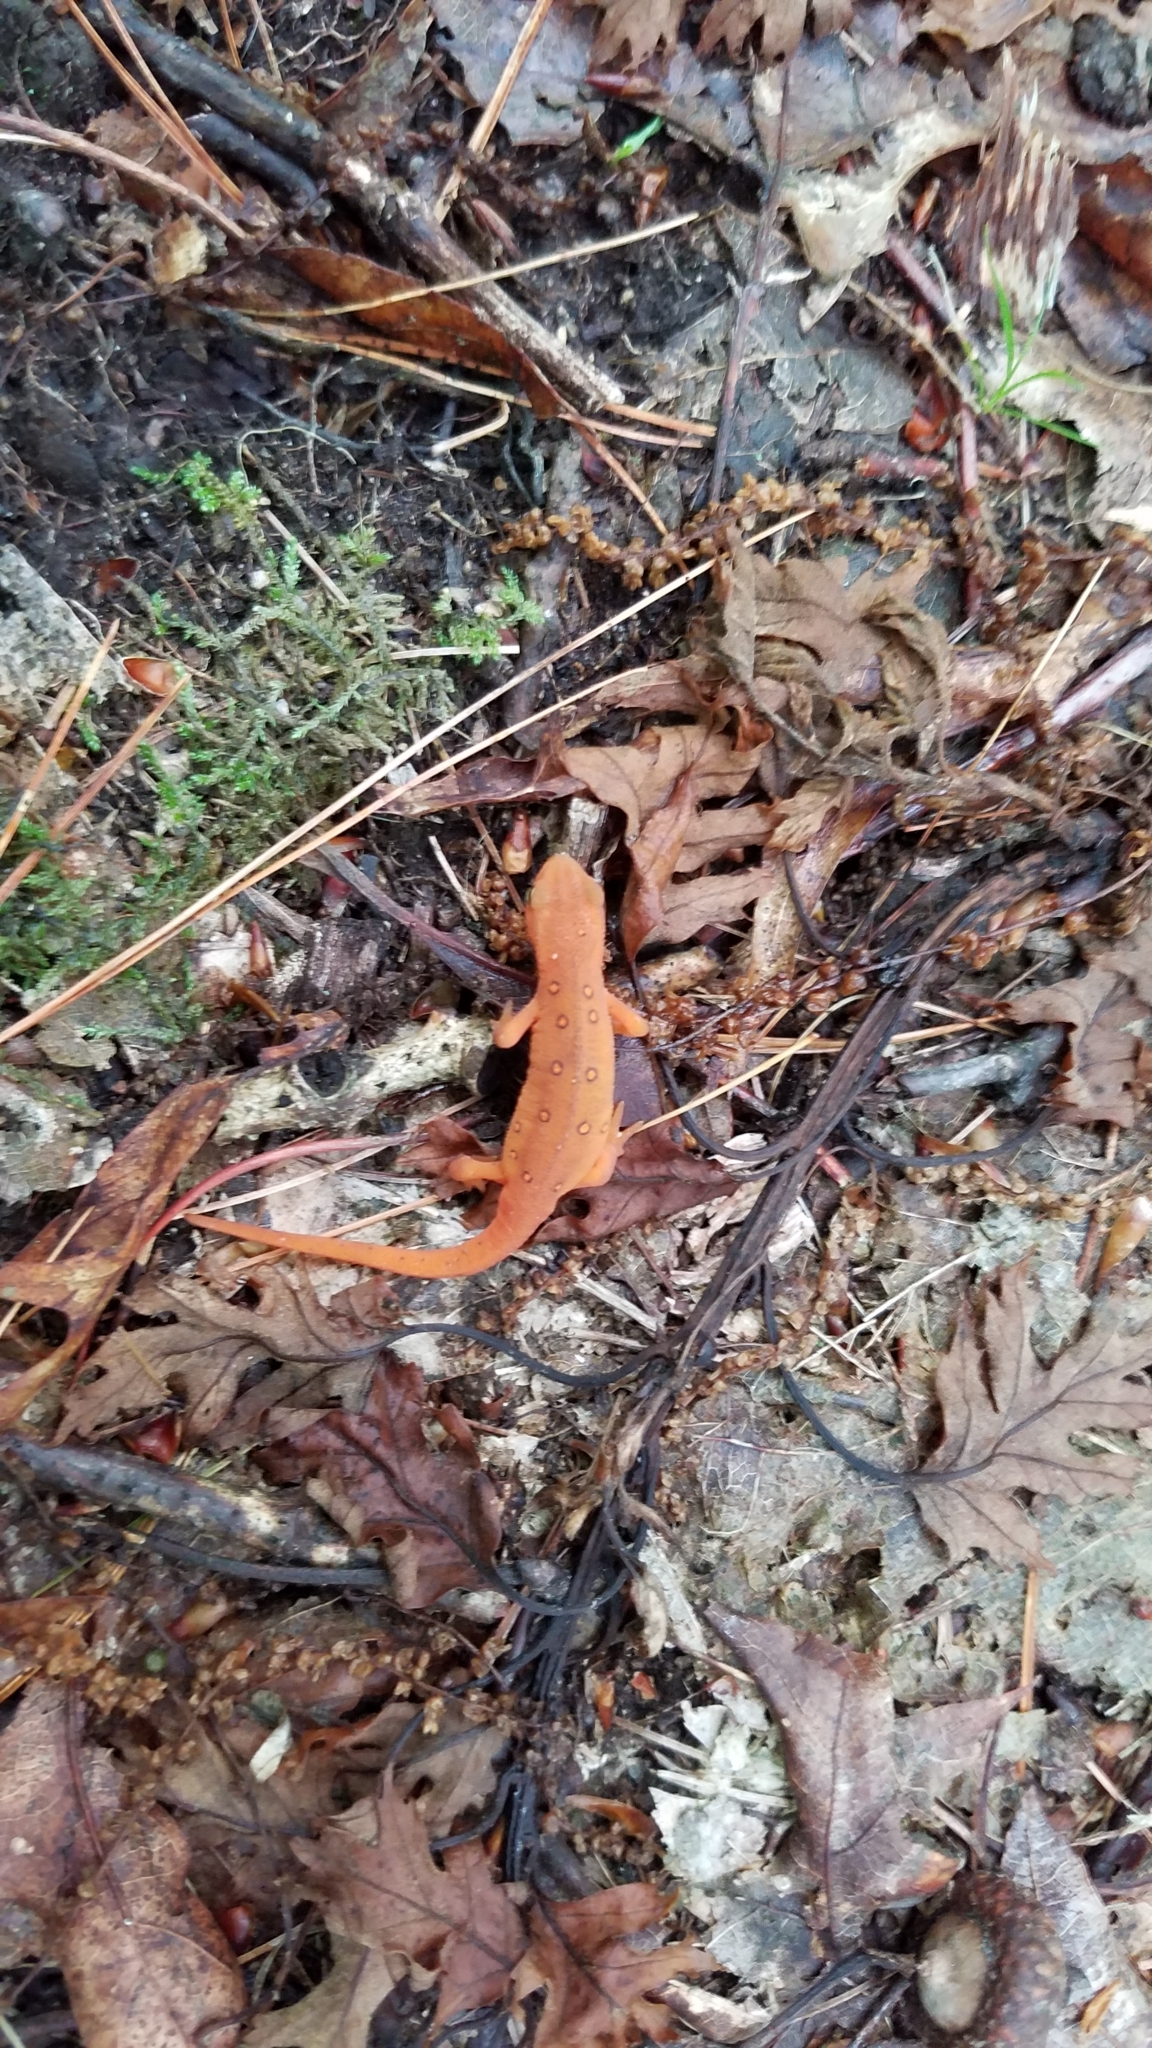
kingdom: Animalia
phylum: Chordata
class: Amphibia
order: Caudata
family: Salamandridae
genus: Notophthalmus
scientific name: Notophthalmus viridescens
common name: Eastern newt
